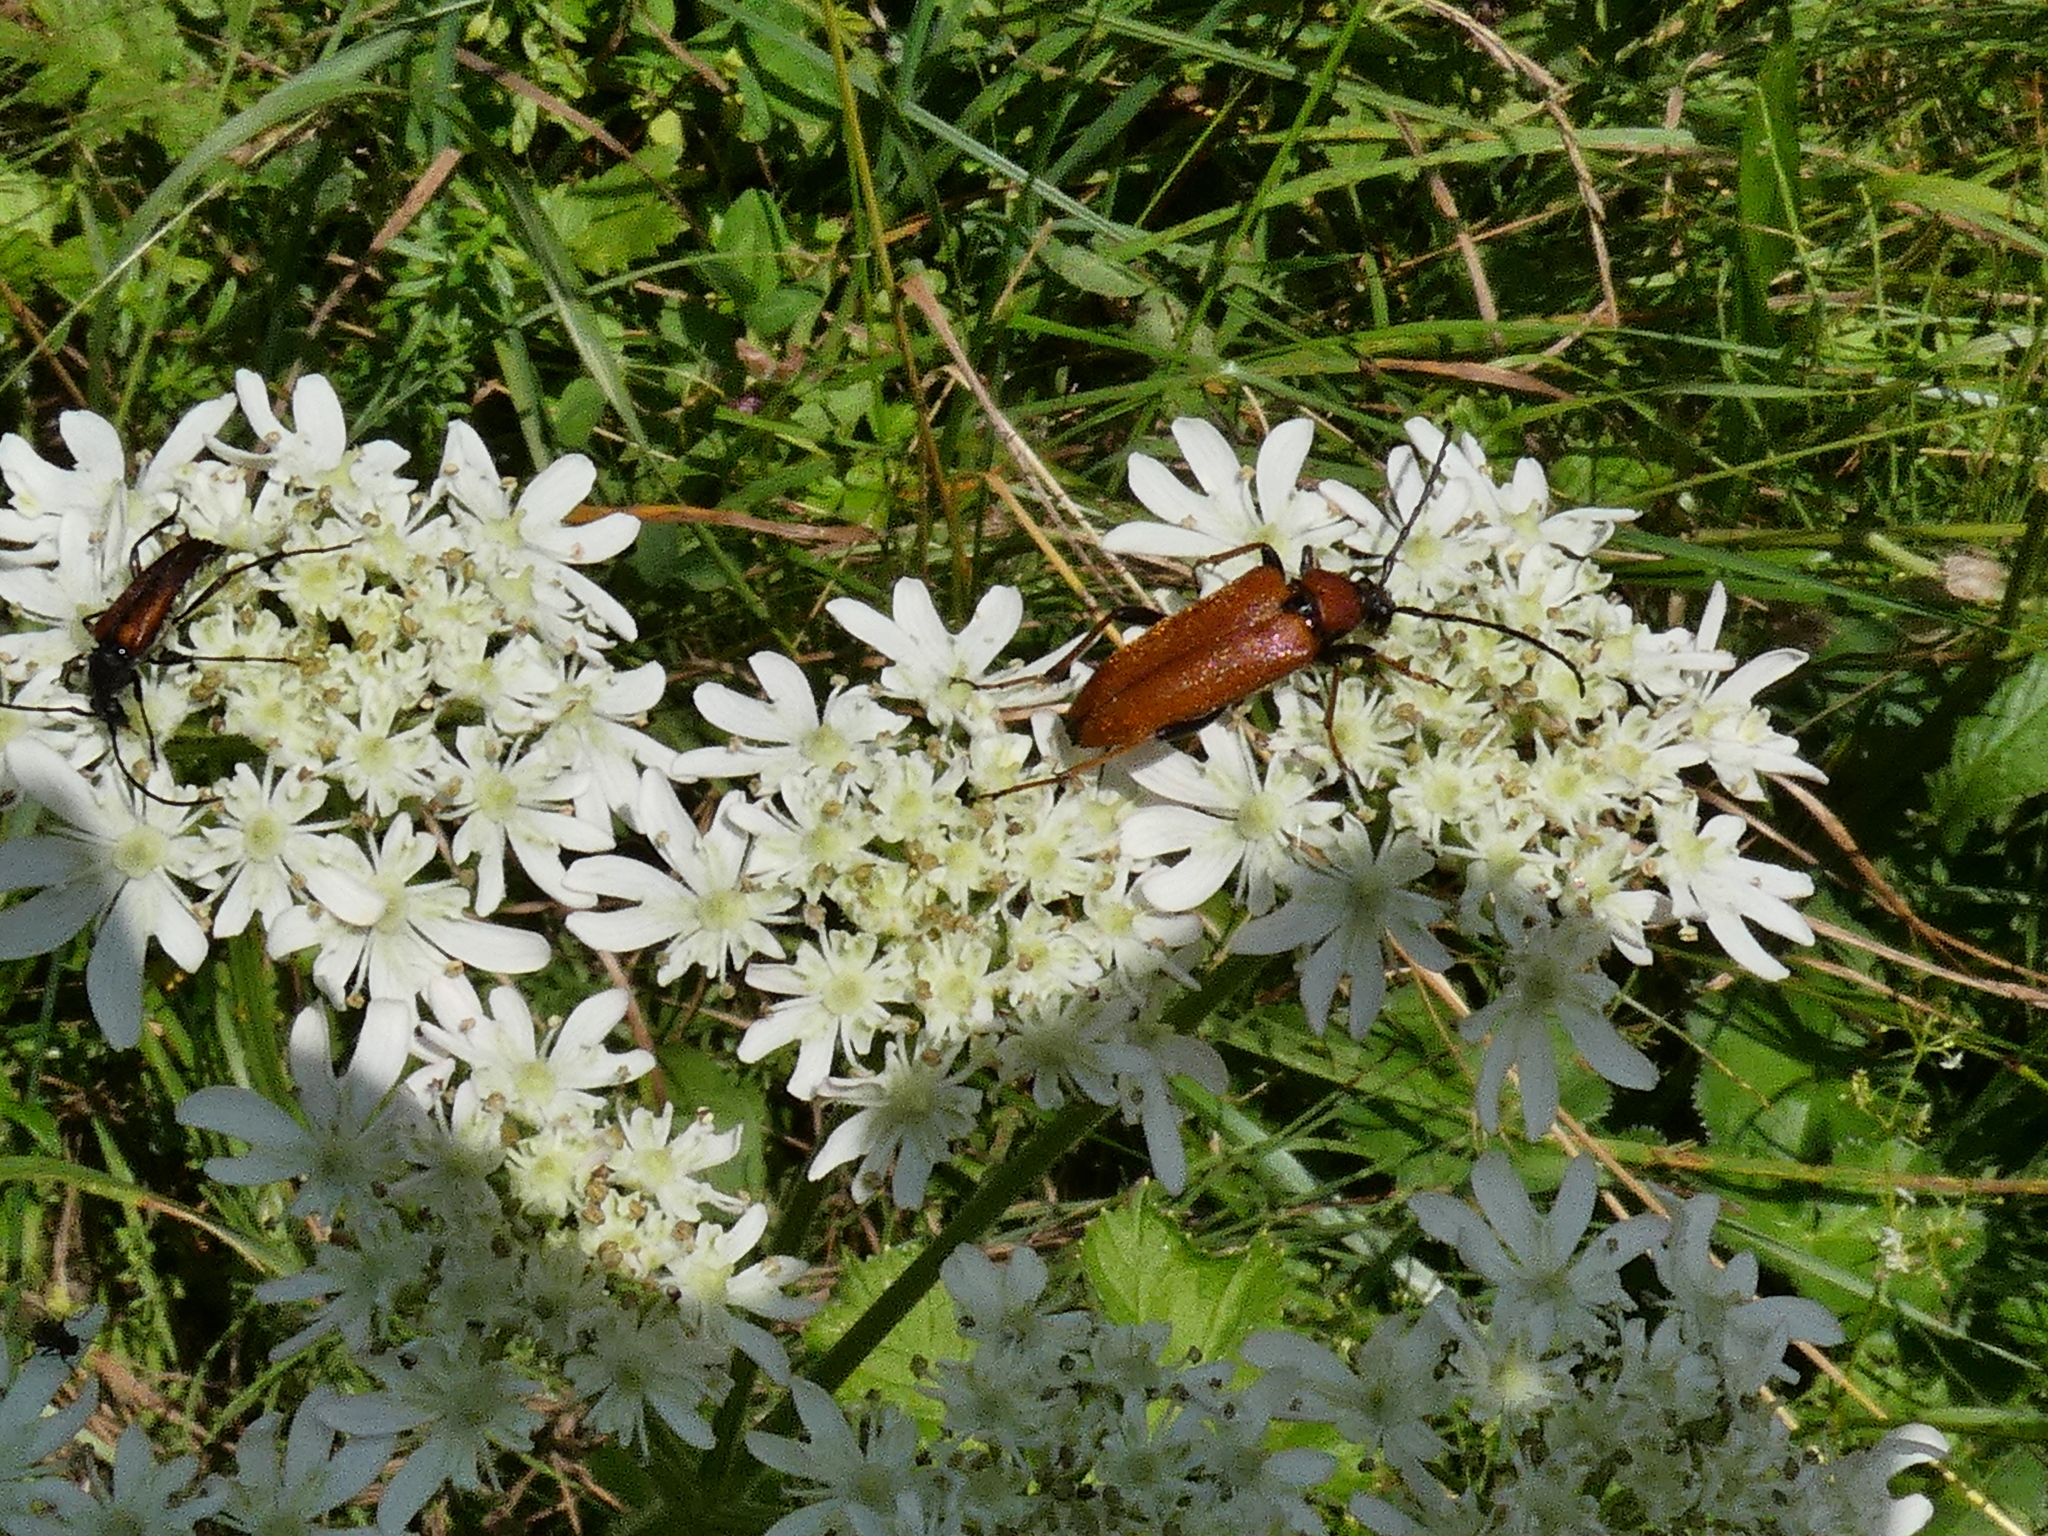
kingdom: Animalia
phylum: Arthropoda
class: Insecta
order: Coleoptera
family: Cerambycidae
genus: Stictoleptura
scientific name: Stictoleptura rubra
